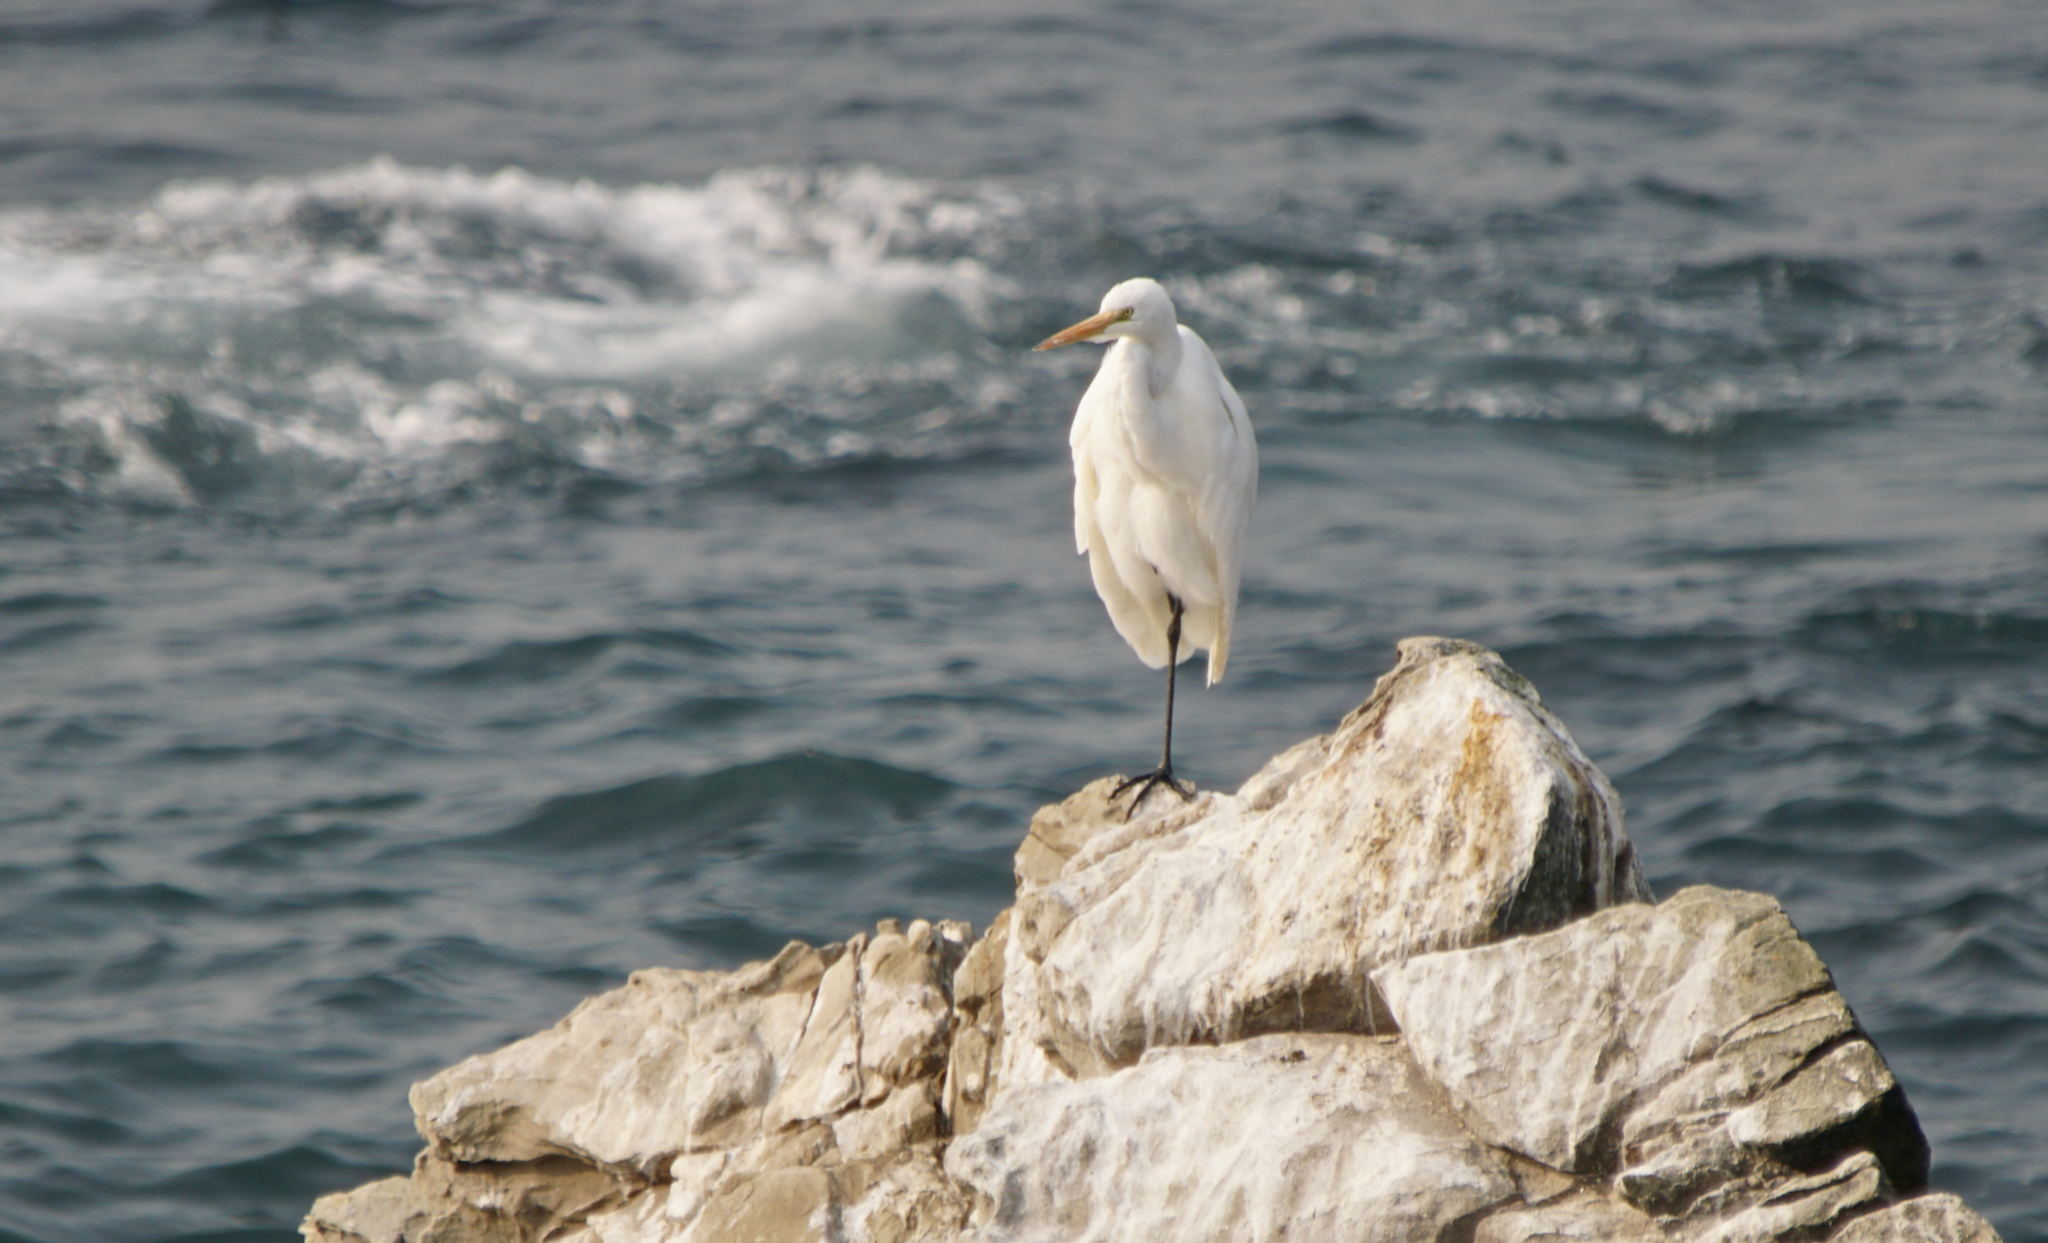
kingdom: Animalia
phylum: Chordata
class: Aves
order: Pelecaniformes
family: Ardeidae
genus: Ardea
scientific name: Ardea alba
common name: Great egret
